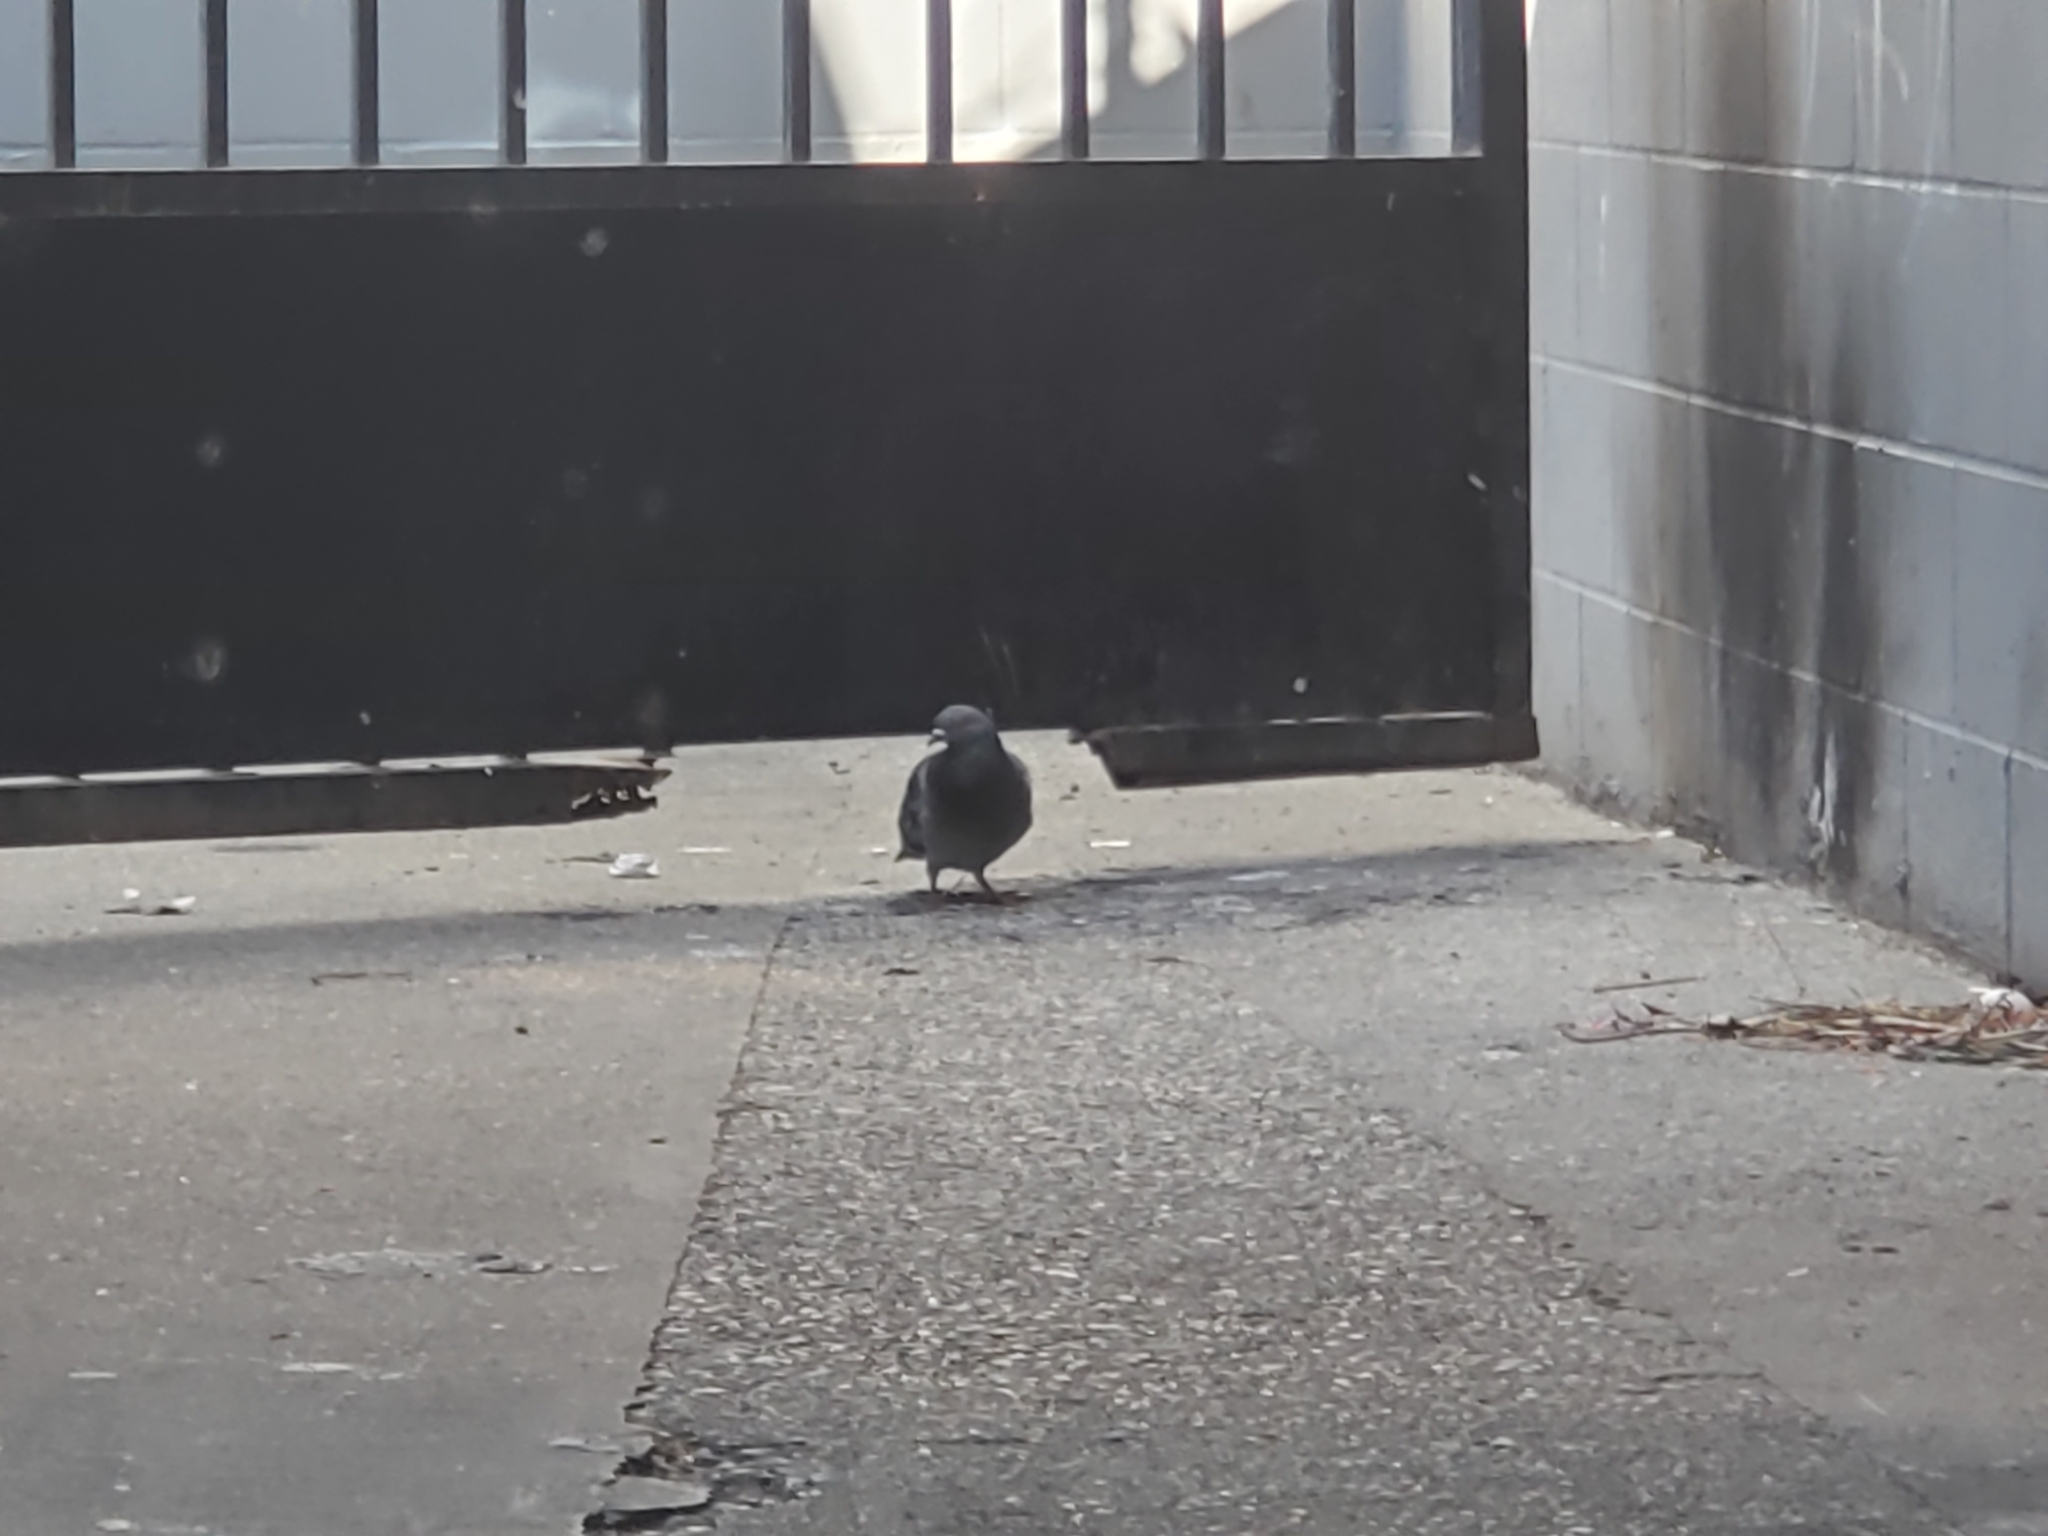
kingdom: Animalia
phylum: Chordata
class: Aves
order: Columbiformes
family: Columbidae
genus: Columba
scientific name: Columba livia
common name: Rock pigeon
